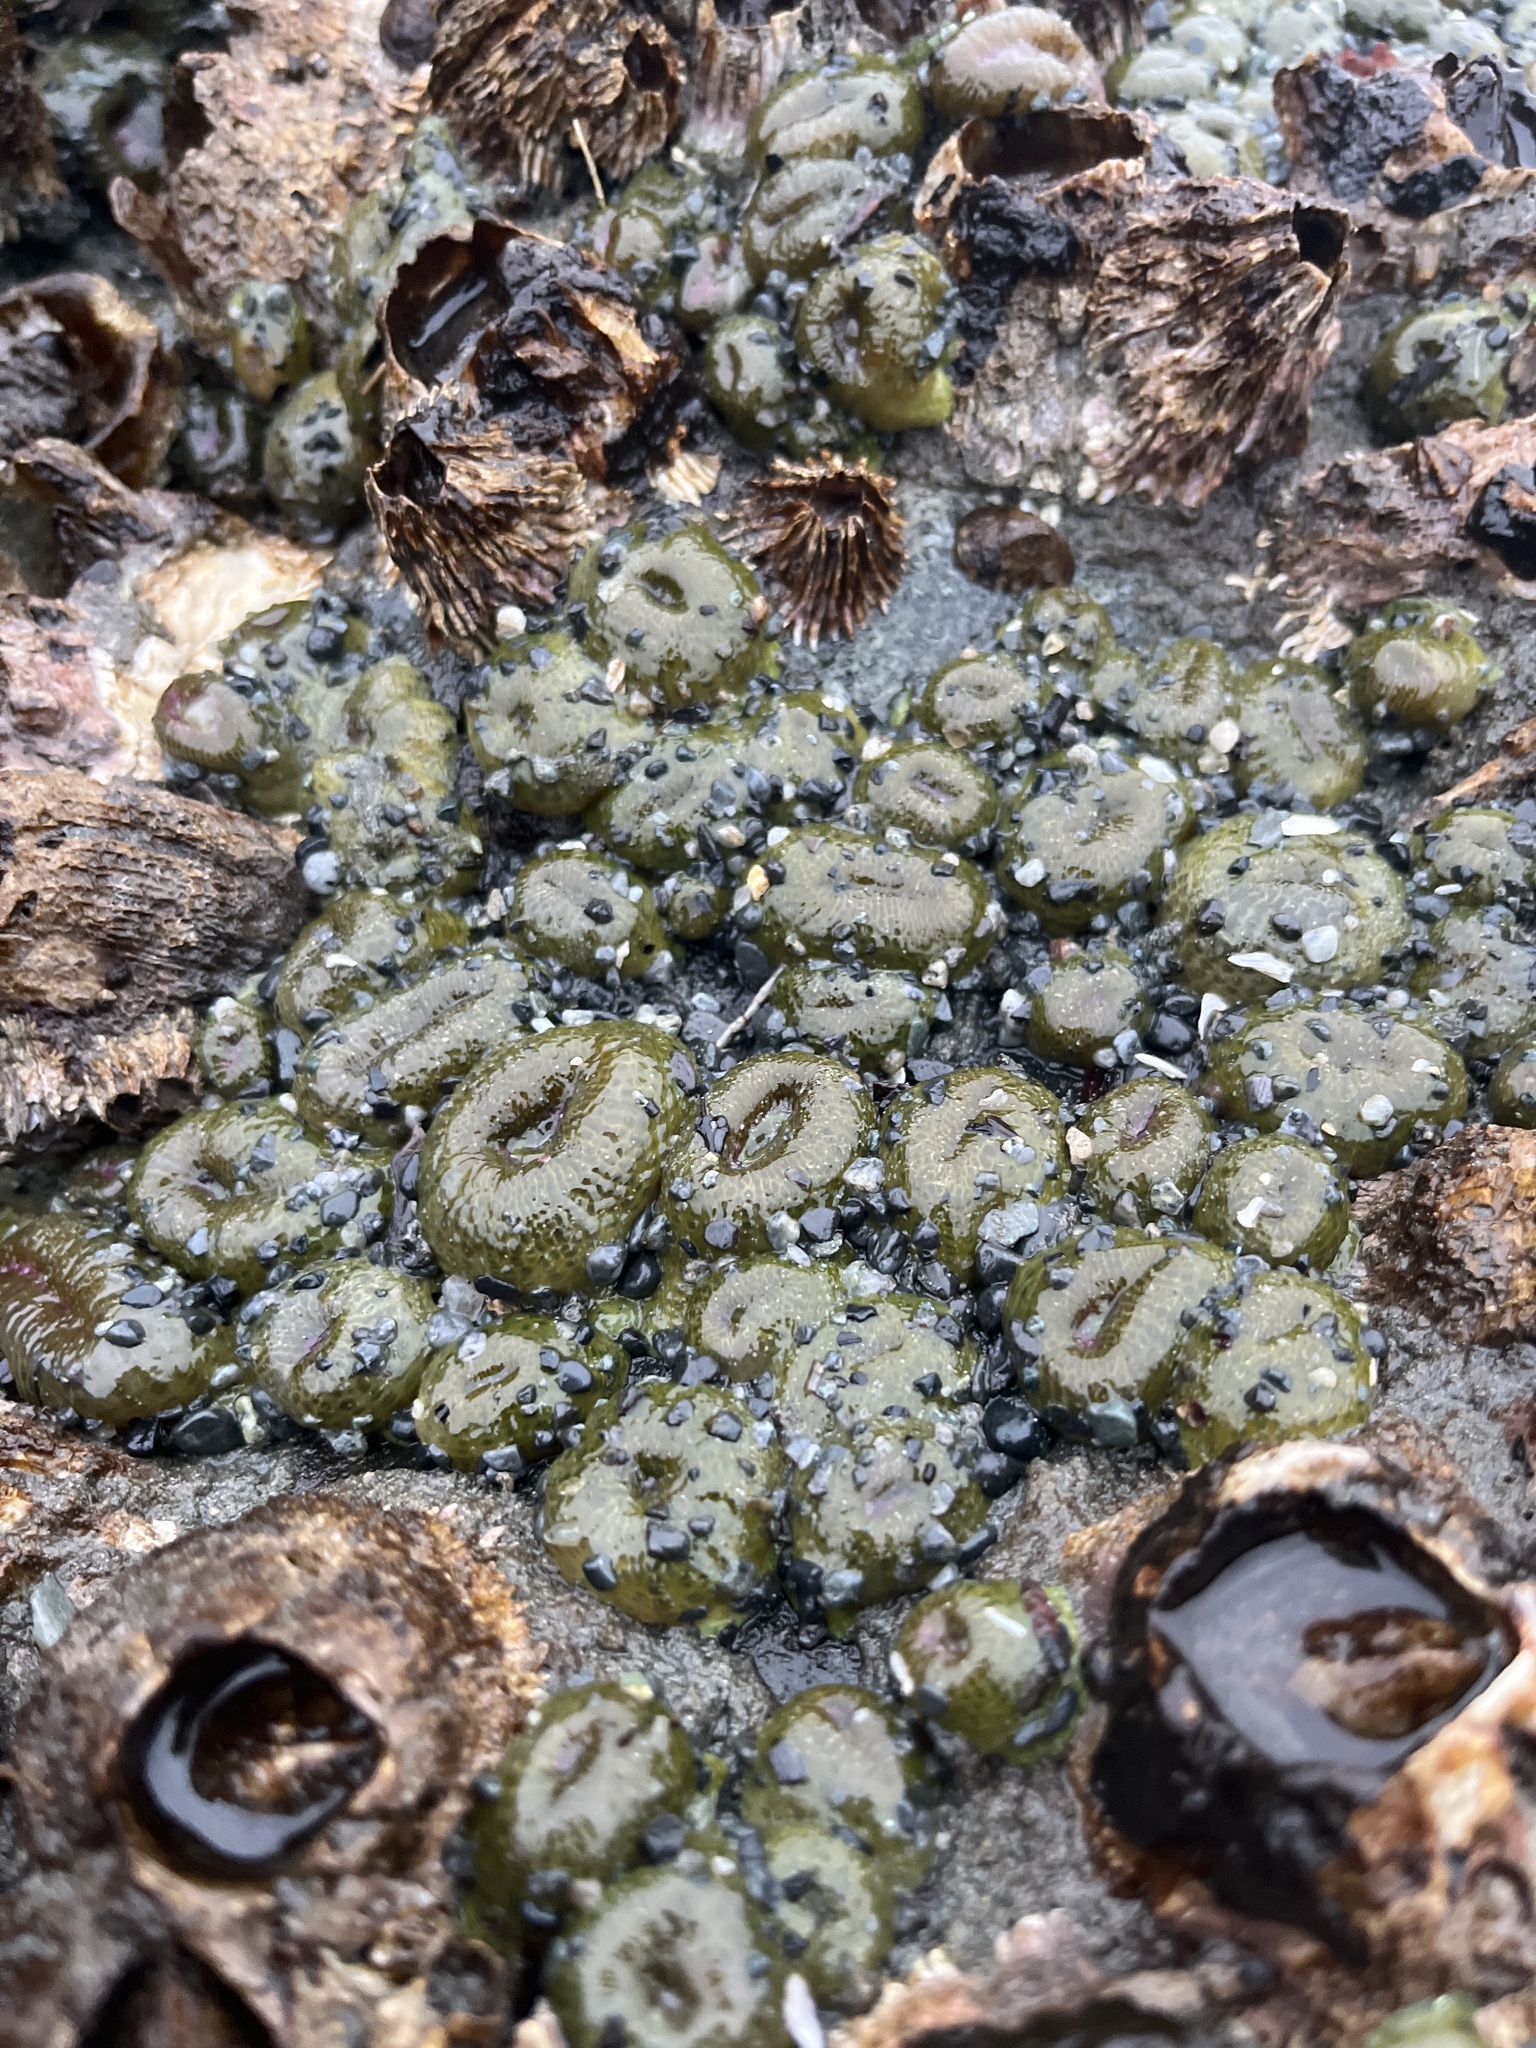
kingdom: Animalia
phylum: Cnidaria
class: Anthozoa
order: Actiniaria
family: Actiniidae
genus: Anthopleura
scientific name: Anthopleura elegantissima
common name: Clonal anemone
